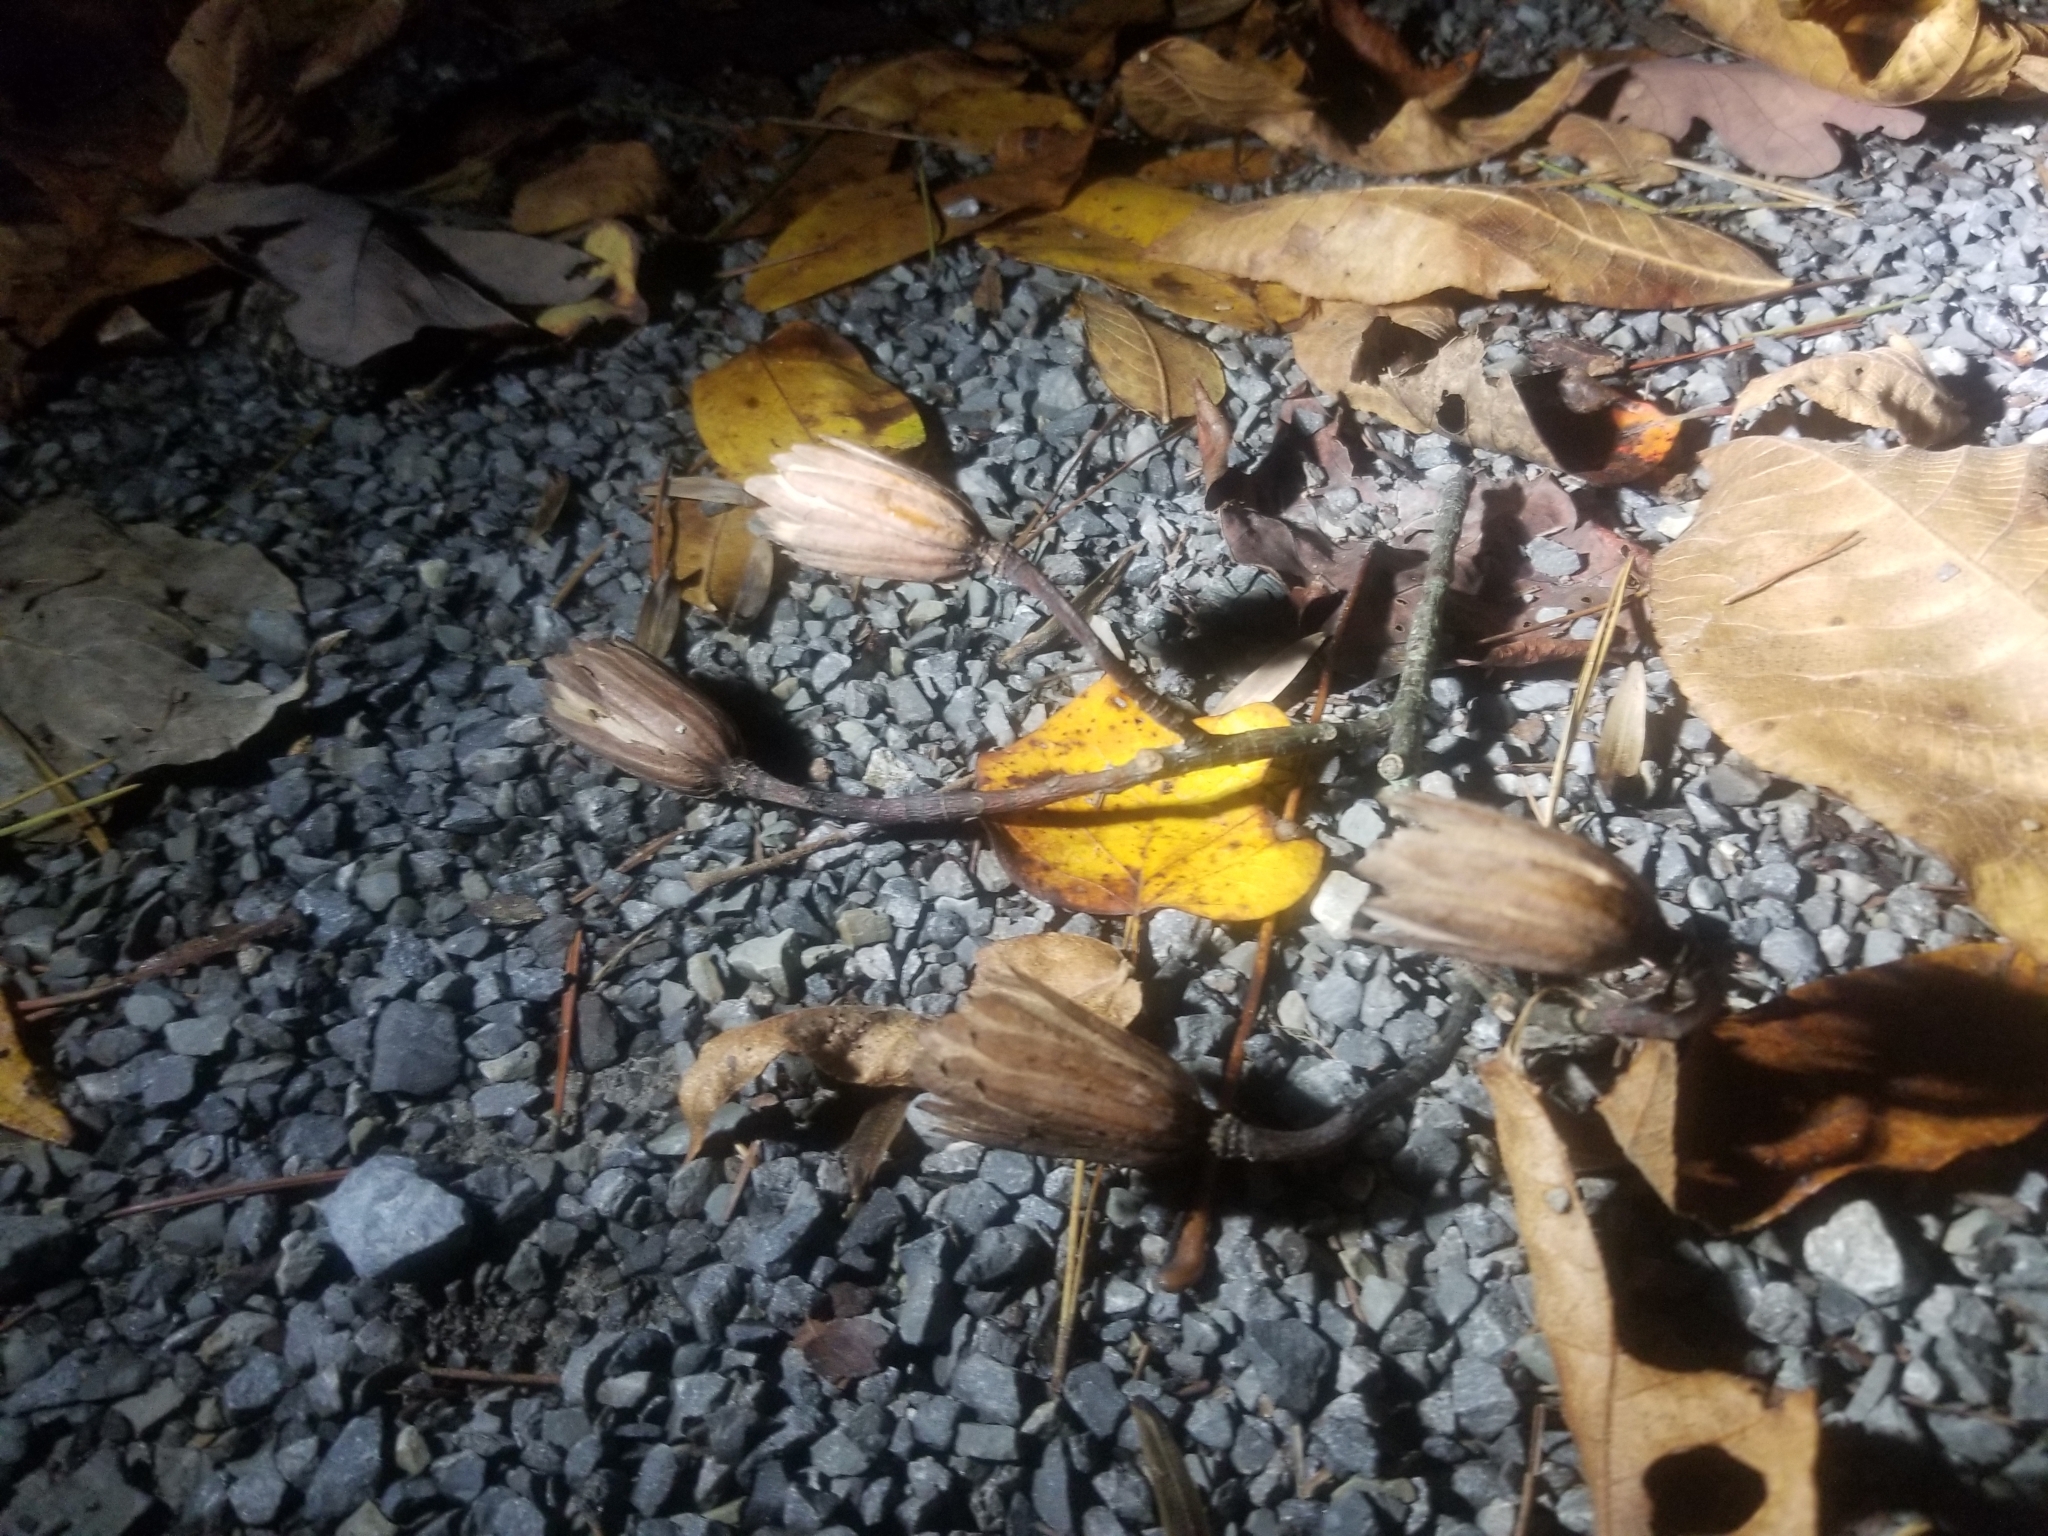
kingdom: Plantae
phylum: Tracheophyta
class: Magnoliopsida
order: Magnoliales
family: Magnoliaceae
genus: Liriodendron
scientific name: Liriodendron tulipifera
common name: Tulip tree
